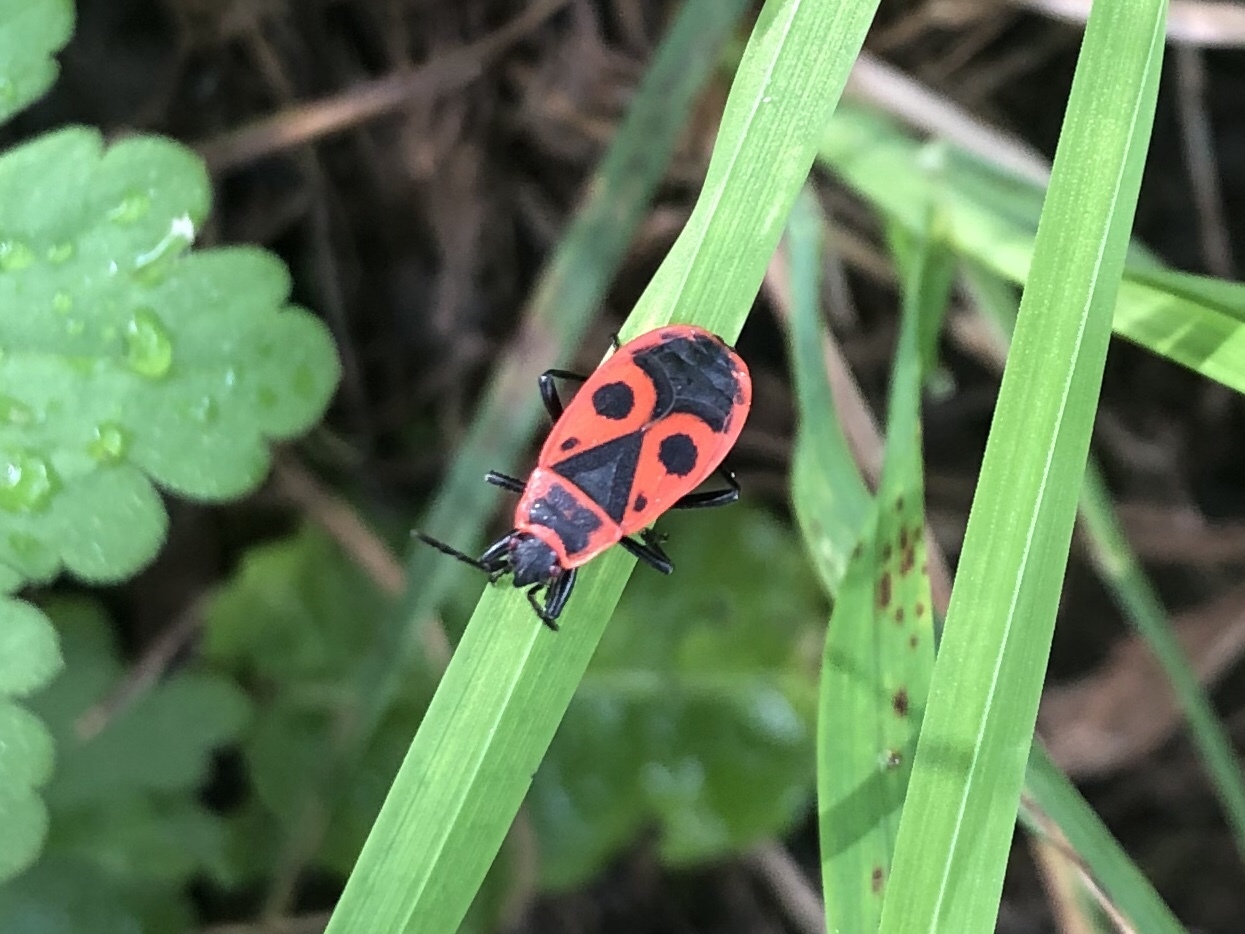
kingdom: Animalia
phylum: Arthropoda
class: Insecta
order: Hemiptera
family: Pyrrhocoridae
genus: Pyrrhocoris
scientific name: Pyrrhocoris apterus
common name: Firebug
